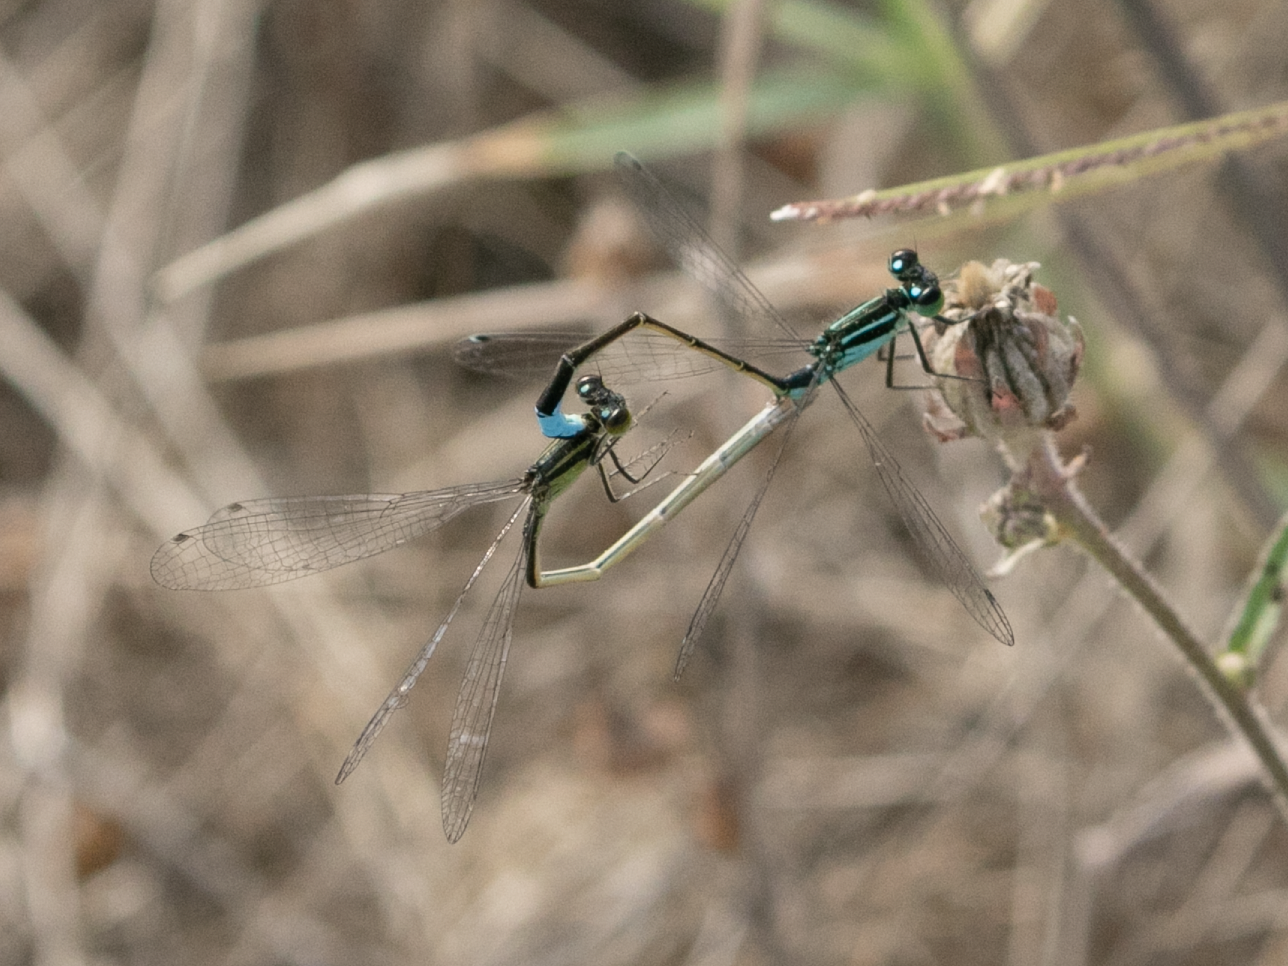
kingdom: Animalia
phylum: Arthropoda
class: Insecta
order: Odonata
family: Coenagrionidae
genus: Ischnura
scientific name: Ischnura elegans
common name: Blue-tailed damselfly
